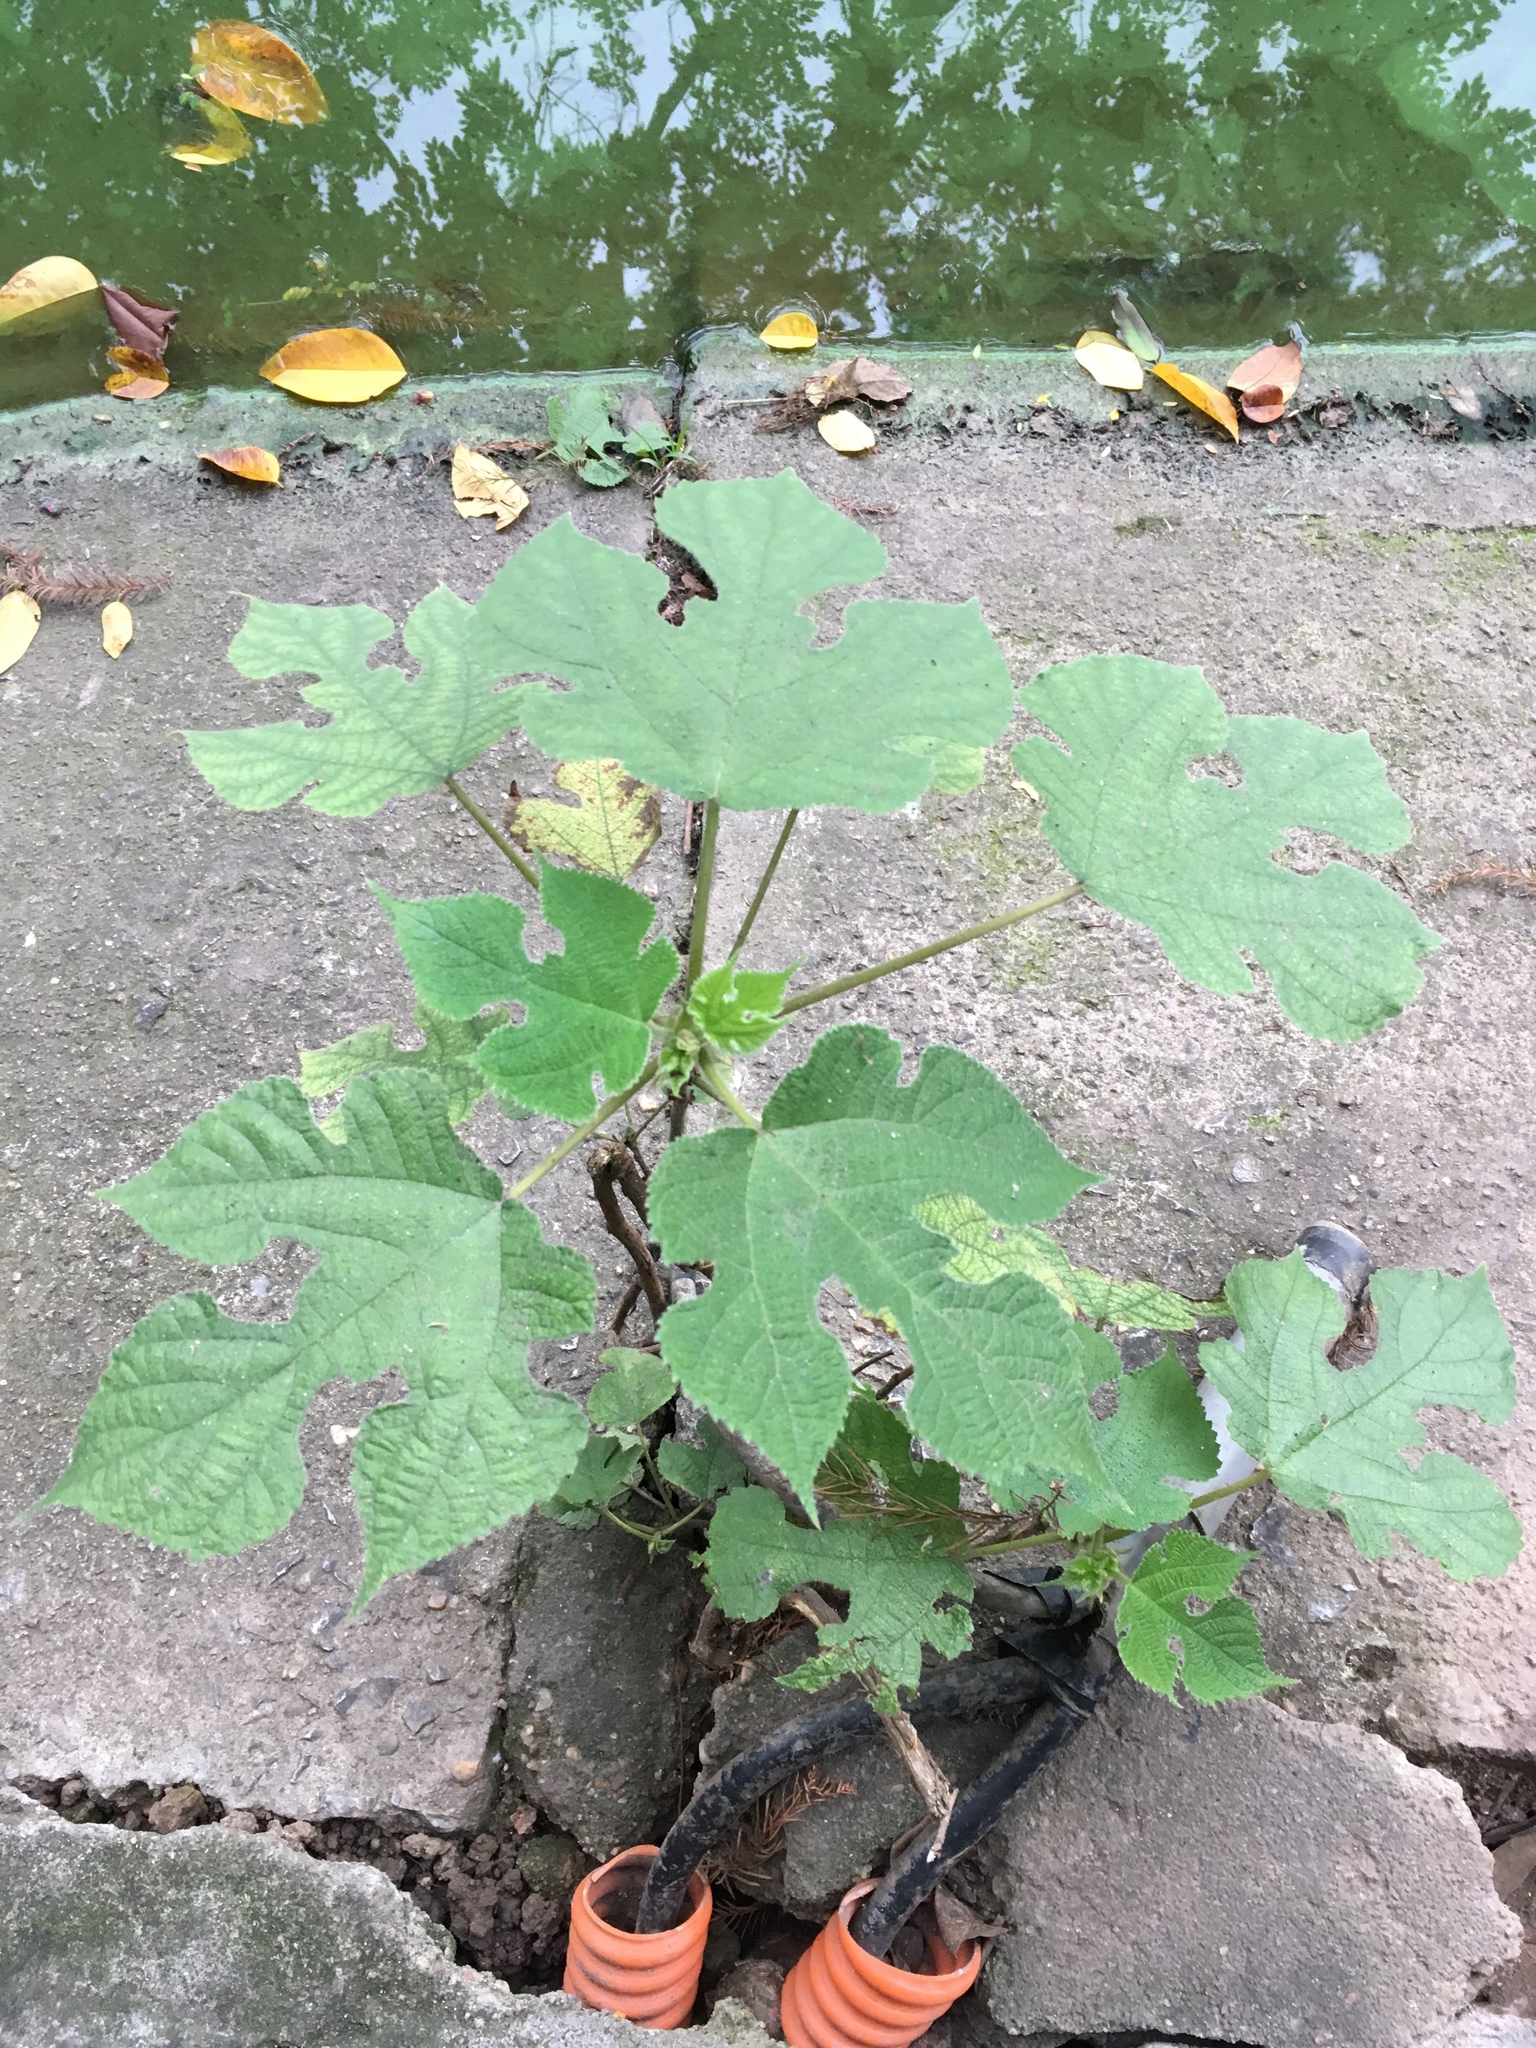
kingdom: Plantae
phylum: Tracheophyta
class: Magnoliopsida
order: Rosales
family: Moraceae
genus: Broussonetia
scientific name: Broussonetia papyrifera
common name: Paper mulberry
